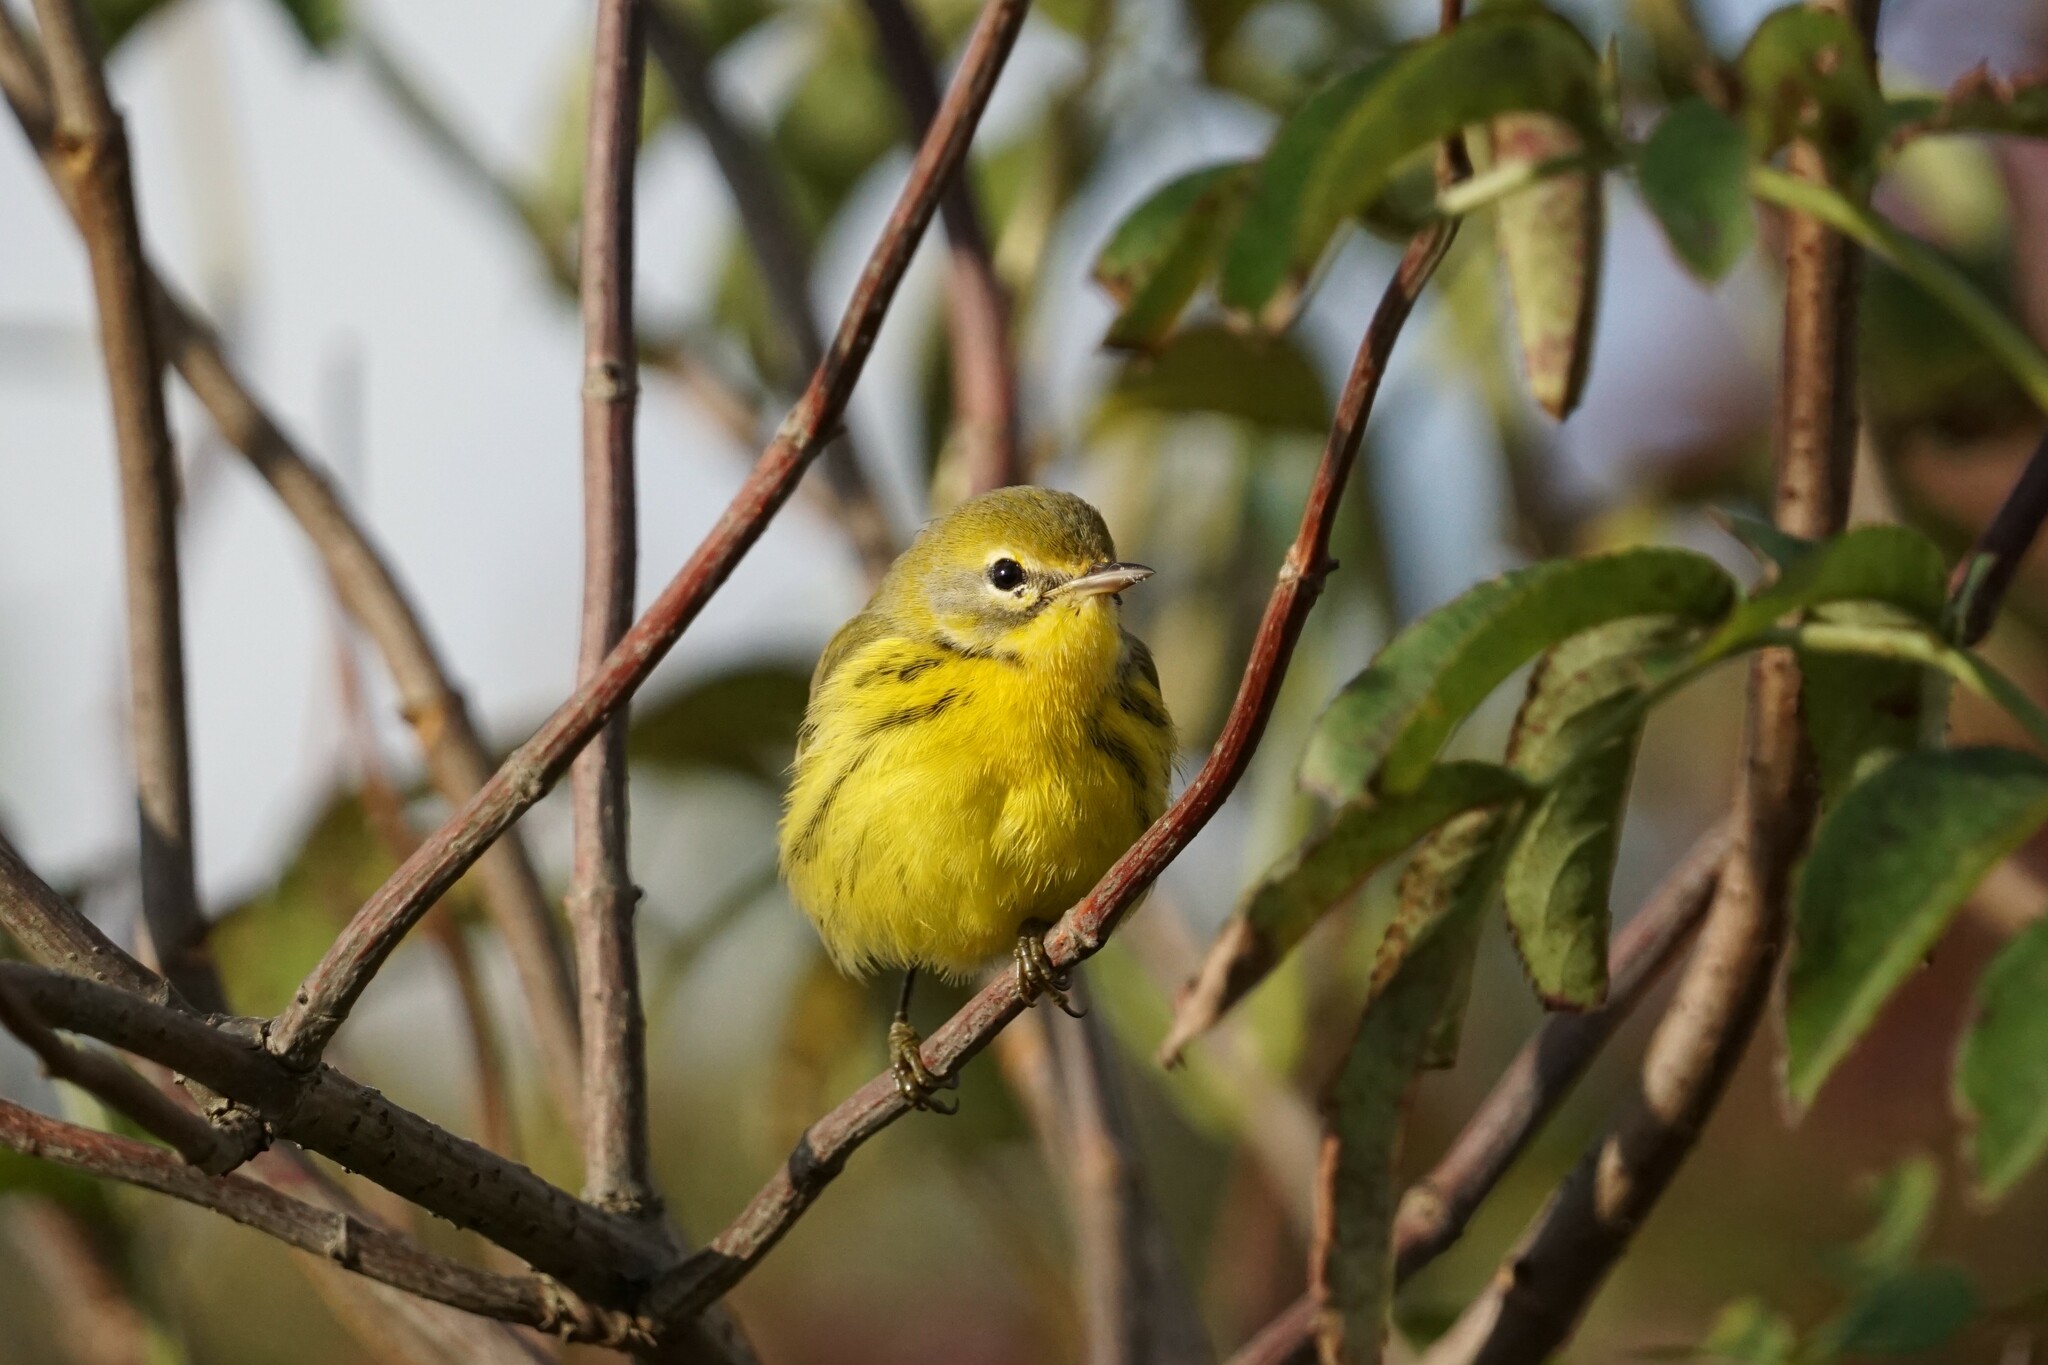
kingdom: Animalia
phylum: Chordata
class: Aves
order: Passeriformes
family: Parulidae
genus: Setophaga
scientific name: Setophaga discolor
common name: Prairie warbler
